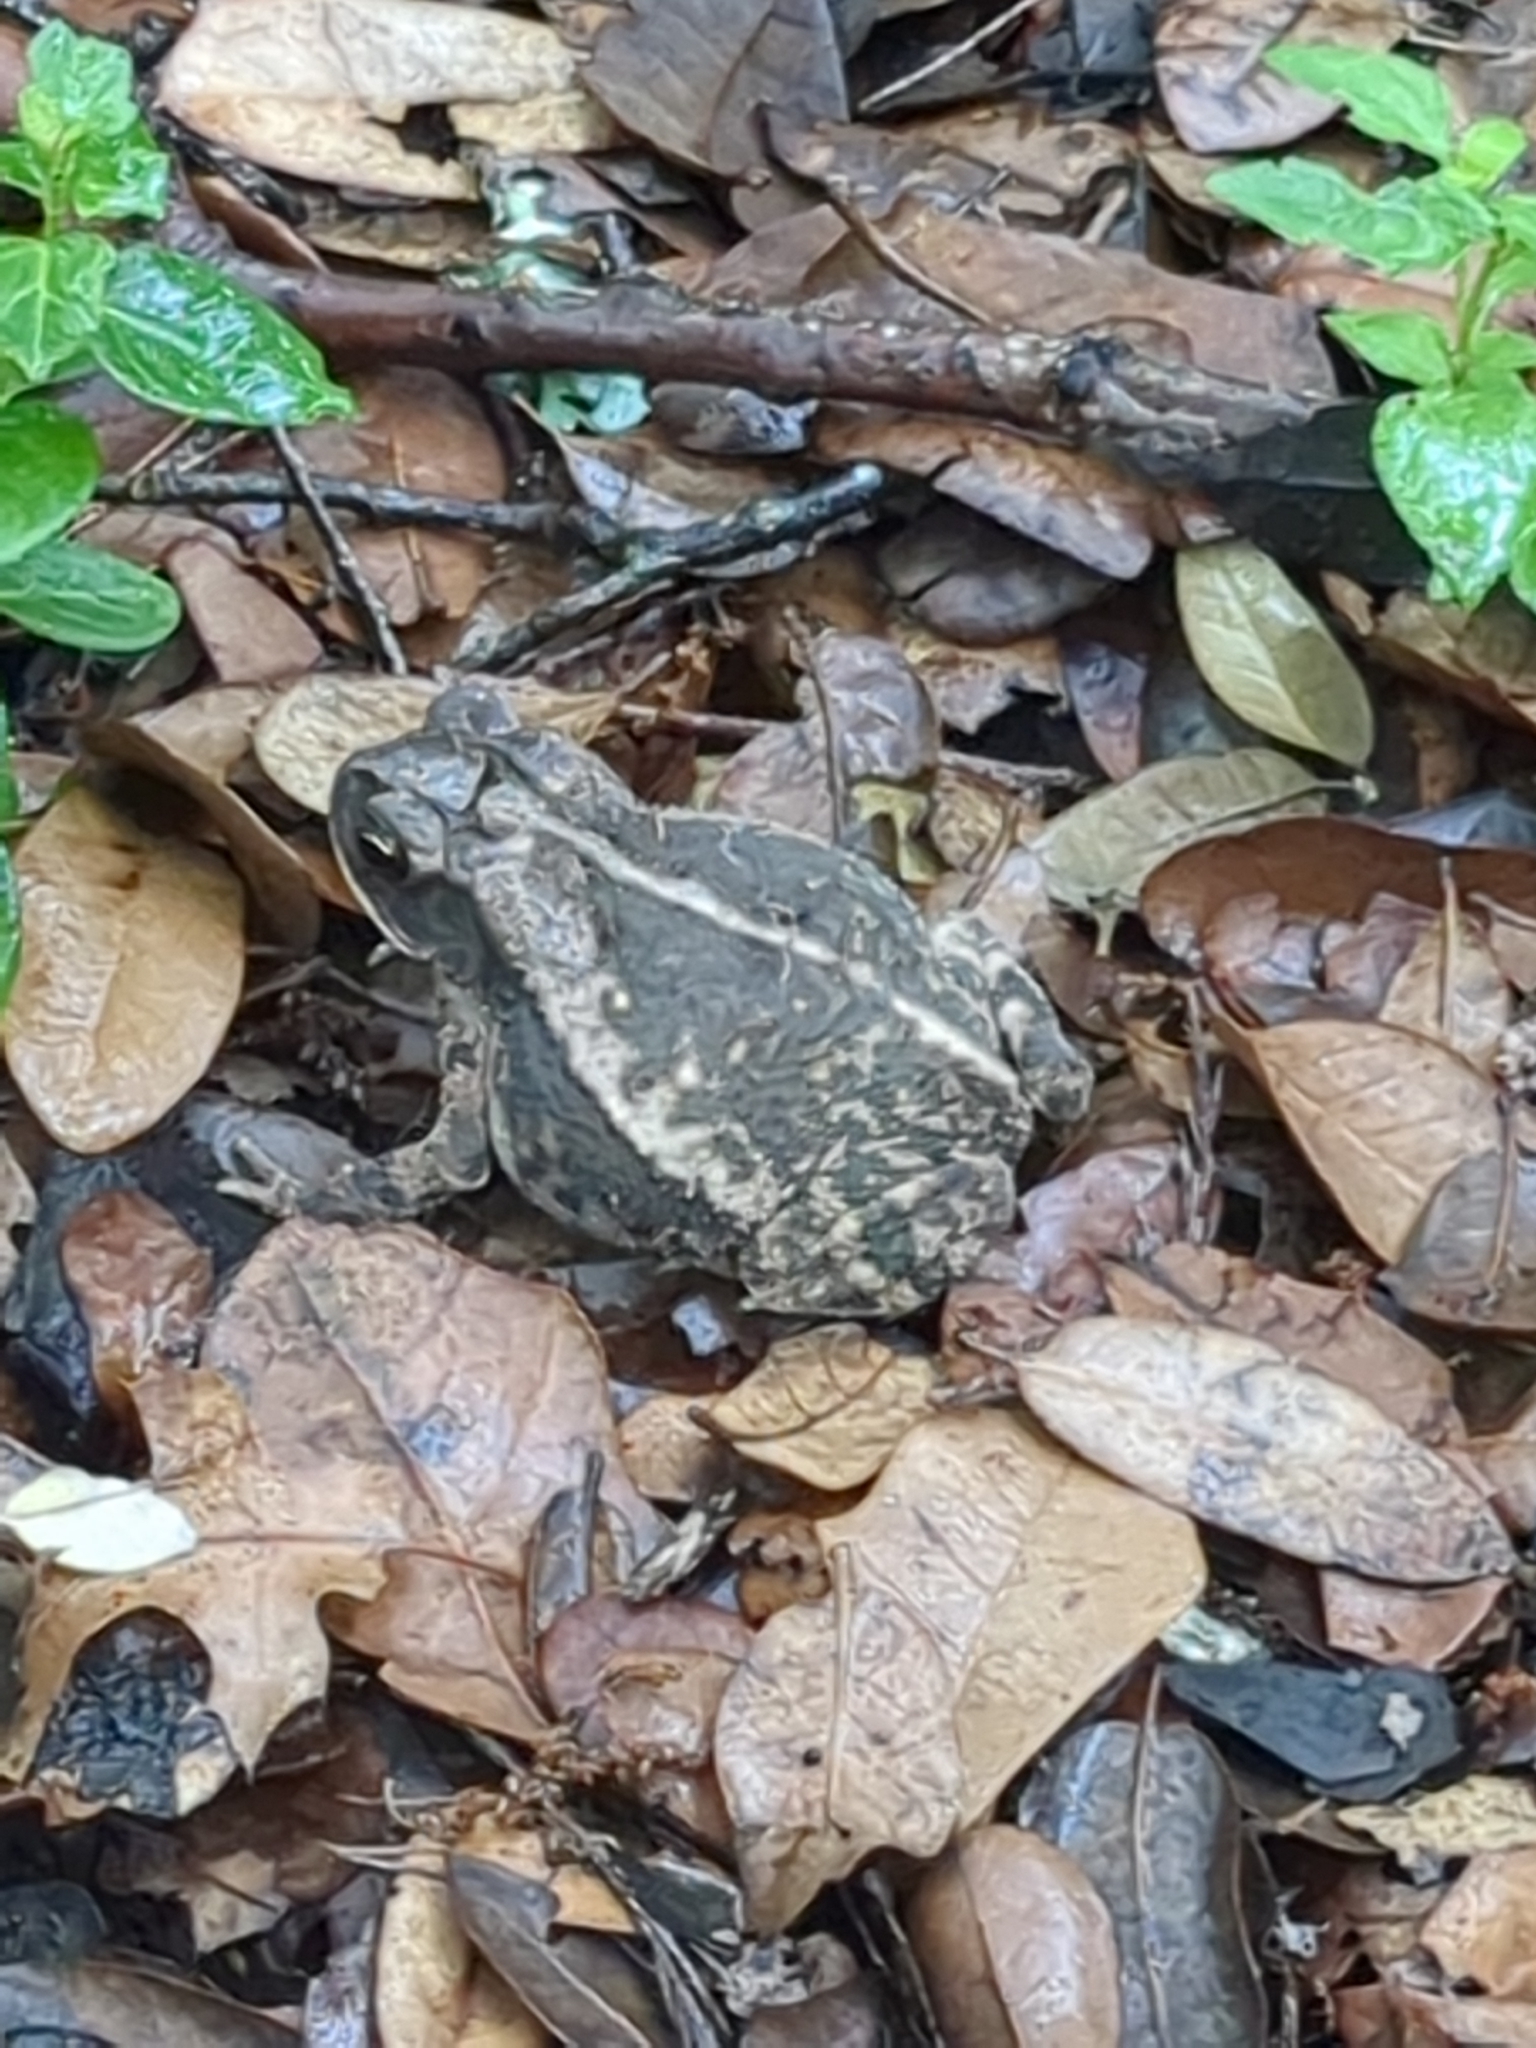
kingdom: Animalia
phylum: Chordata
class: Amphibia
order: Anura
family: Bufonidae
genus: Incilius
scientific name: Incilius nebulifer
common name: Gulf coast toad
